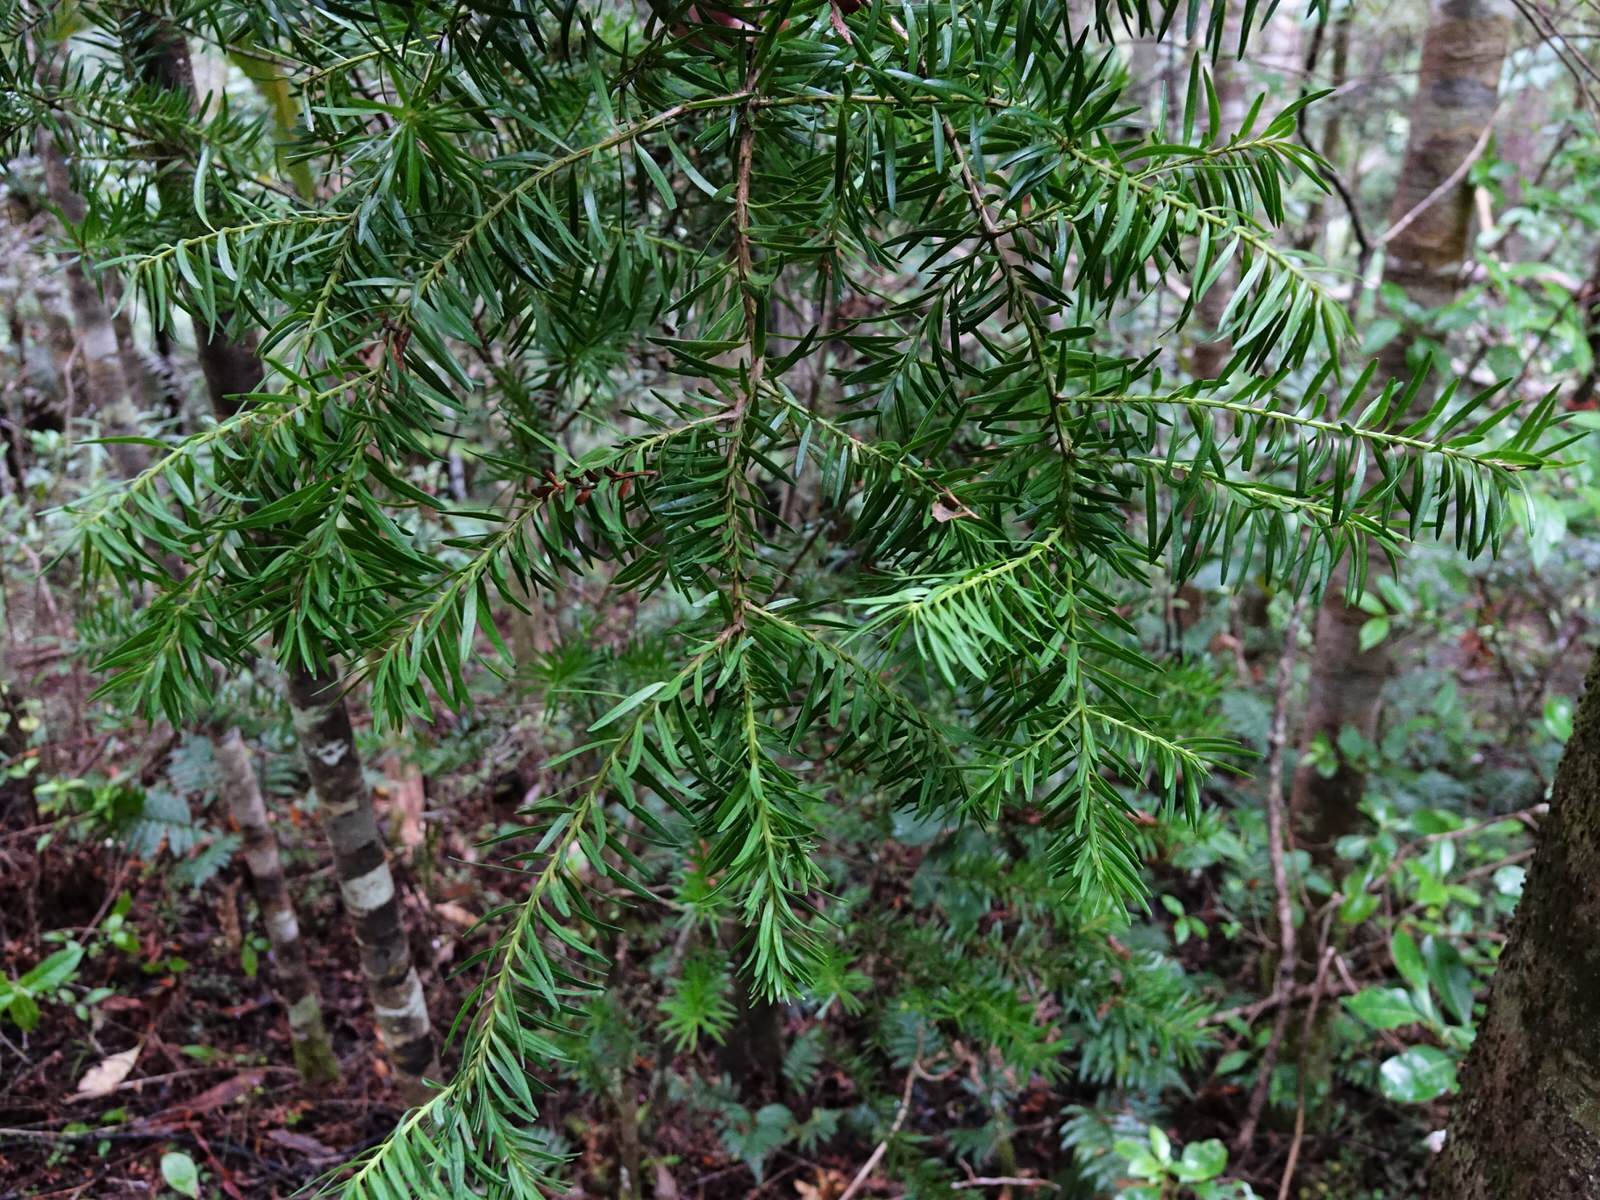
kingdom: Plantae
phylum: Tracheophyta
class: Pinopsida
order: Pinales
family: Podocarpaceae
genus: Halocarpus
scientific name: Halocarpus kirkii
